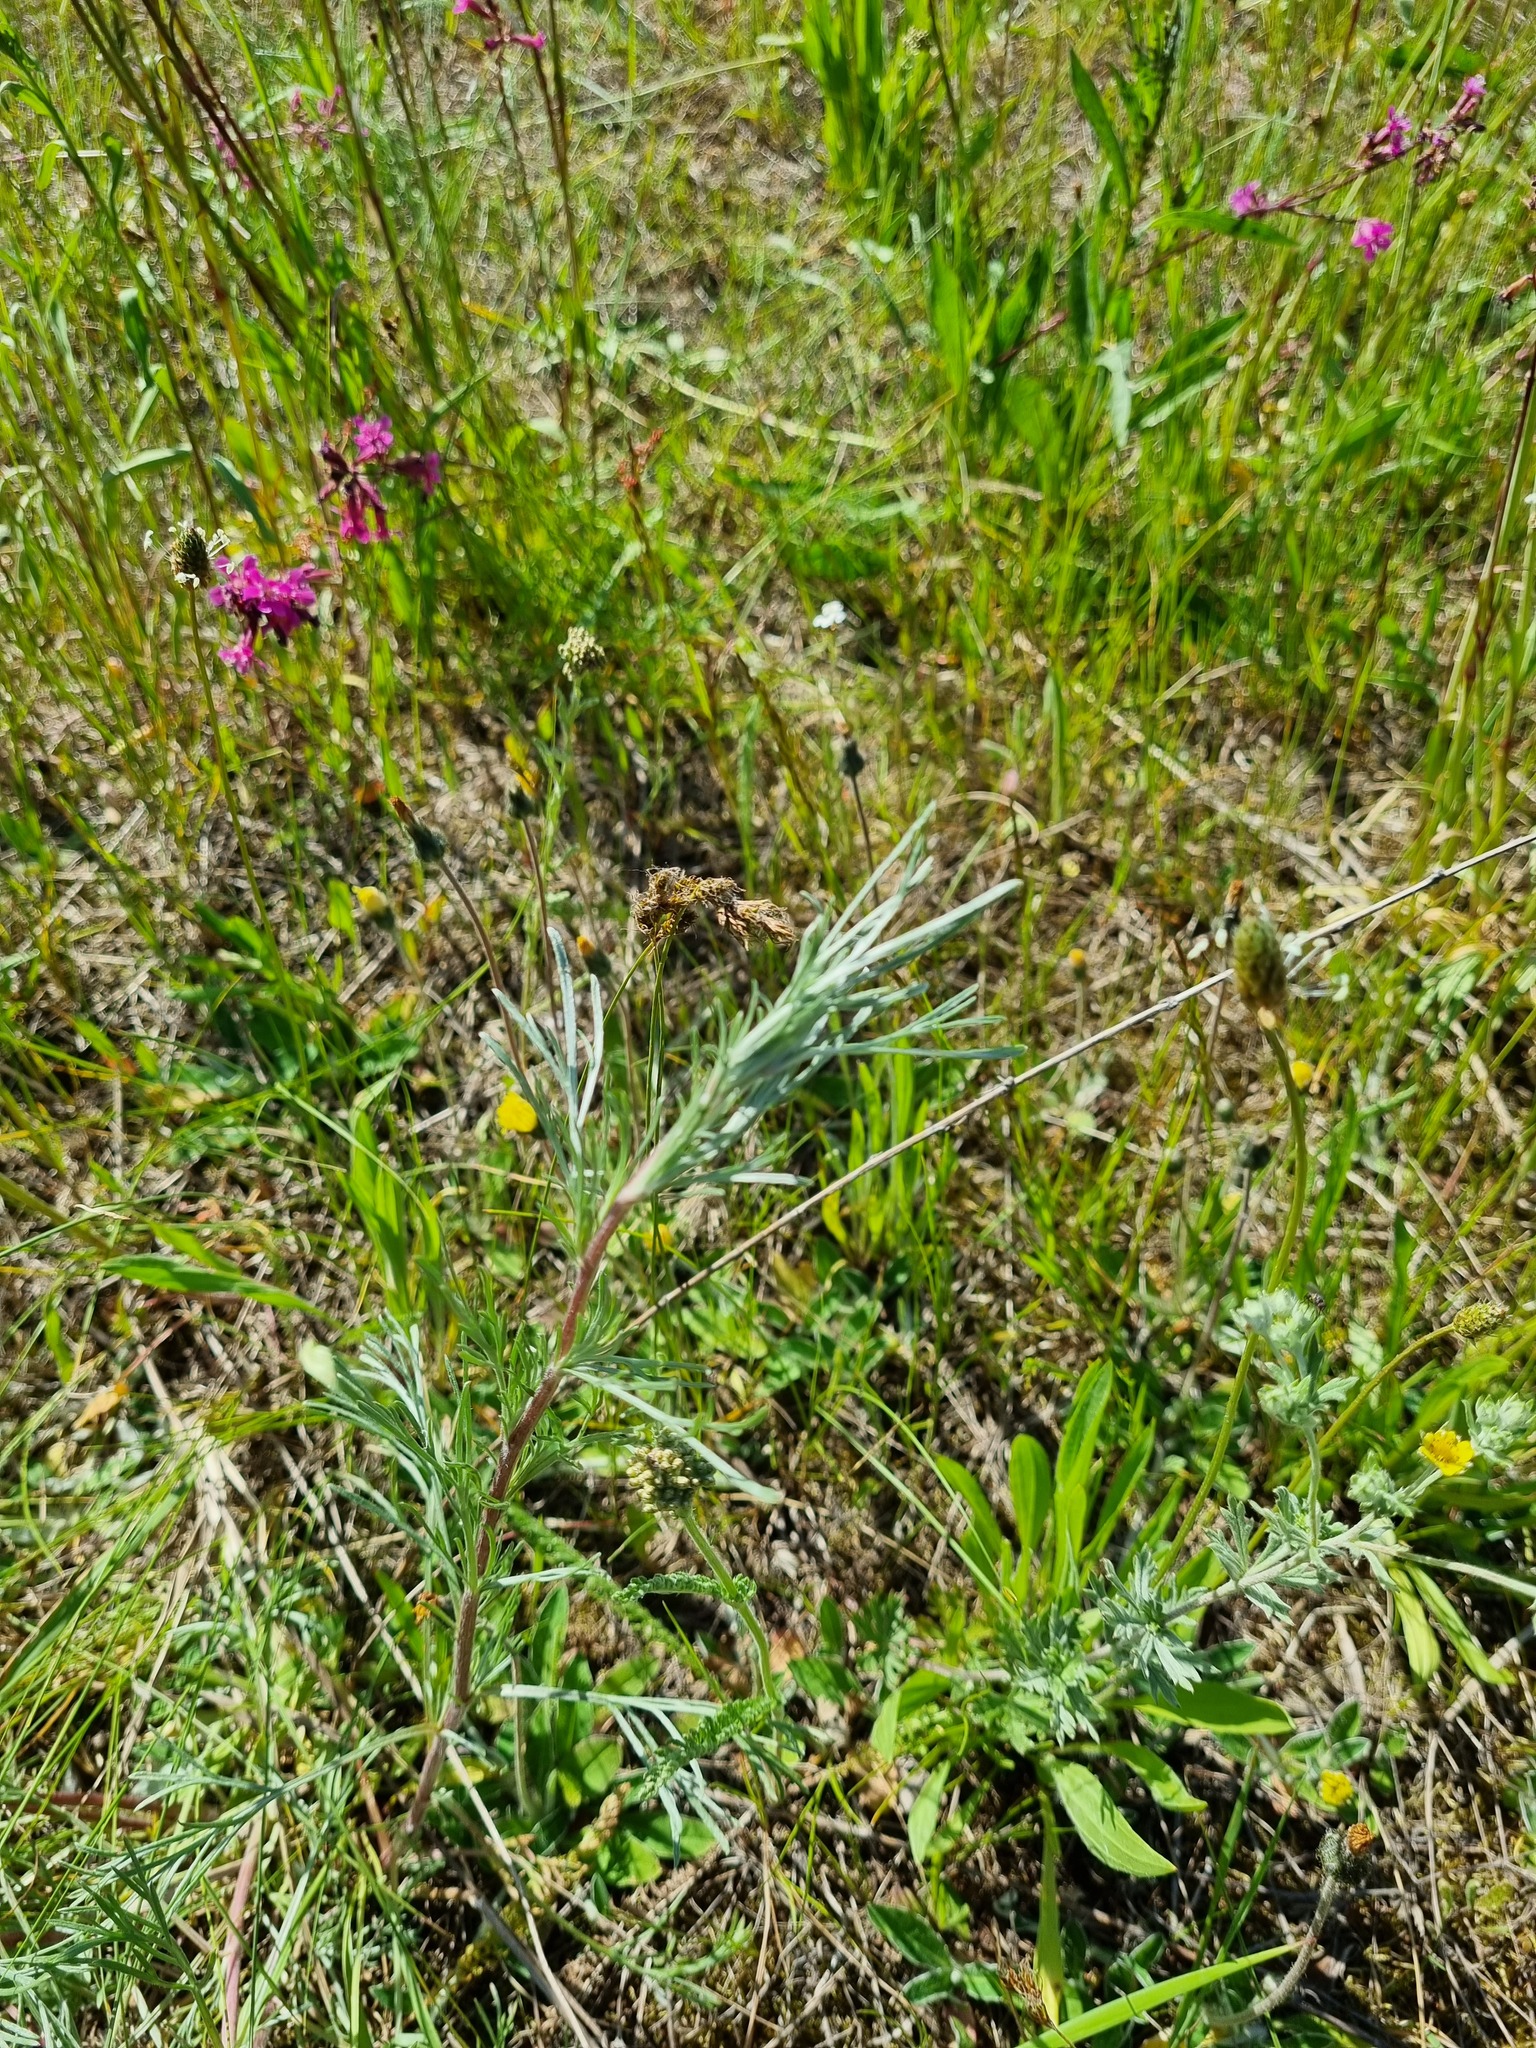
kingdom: Plantae
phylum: Tracheophyta
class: Magnoliopsida
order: Asterales
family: Asteraceae
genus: Artemisia
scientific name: Artemisia campestris
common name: Field wormwood
